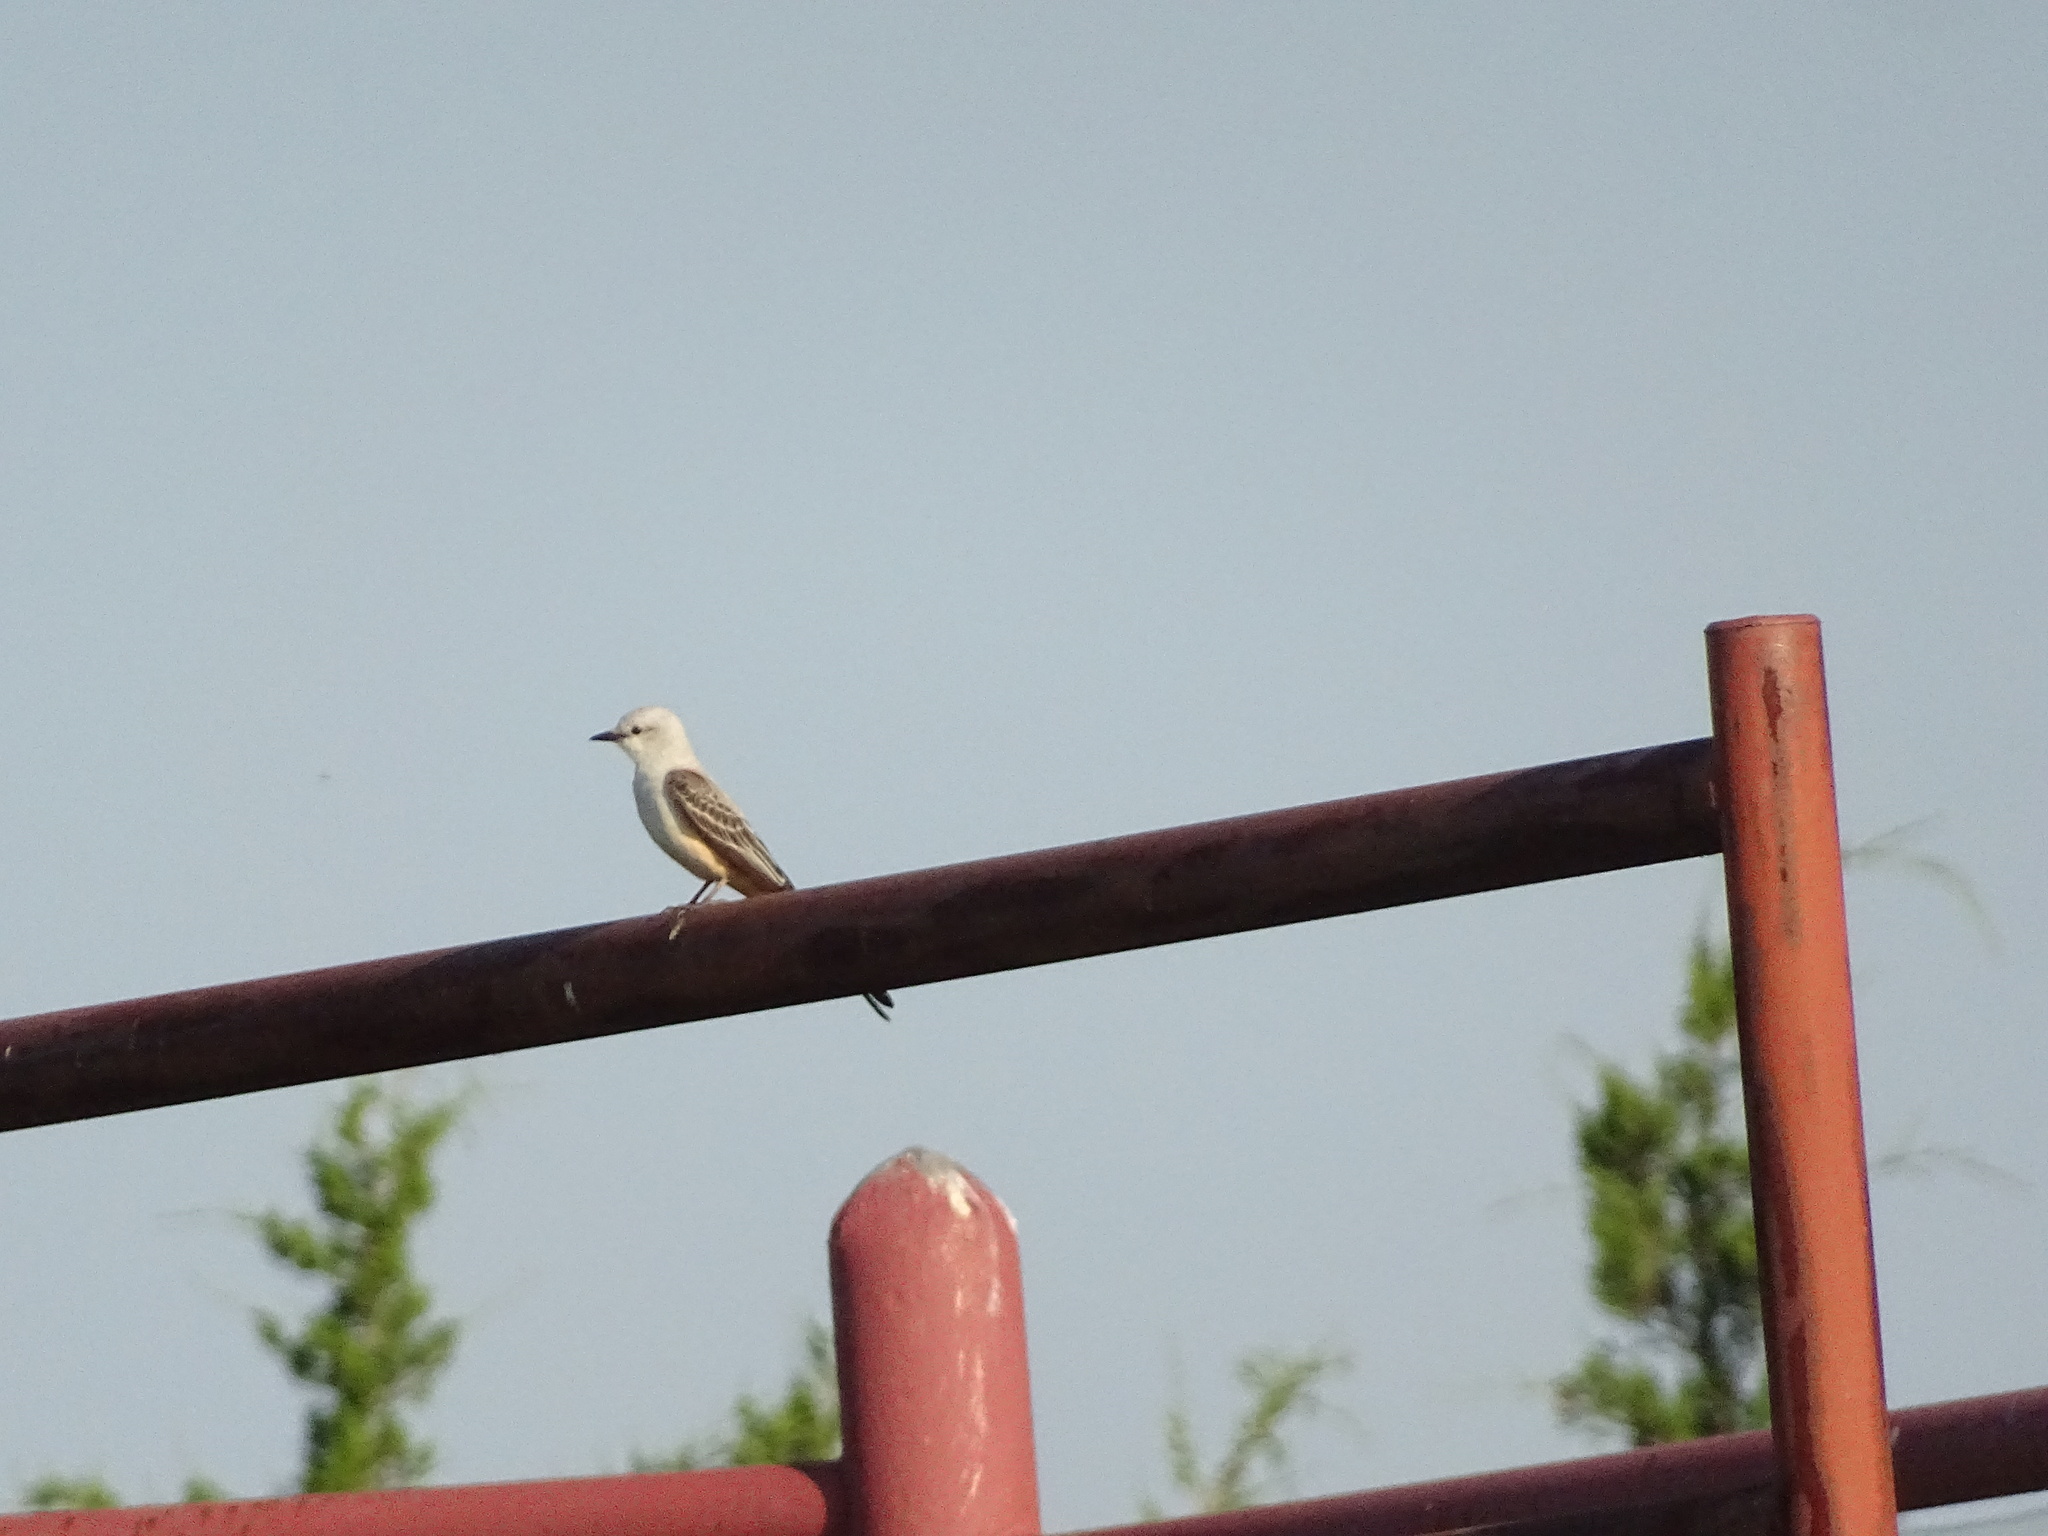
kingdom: Animalia
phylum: Chordata
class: Aves
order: Passeriformes
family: Tyrannidae
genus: Tyrannus
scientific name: Tyrannus forficatus
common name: Scissor-tailed flycatcher
